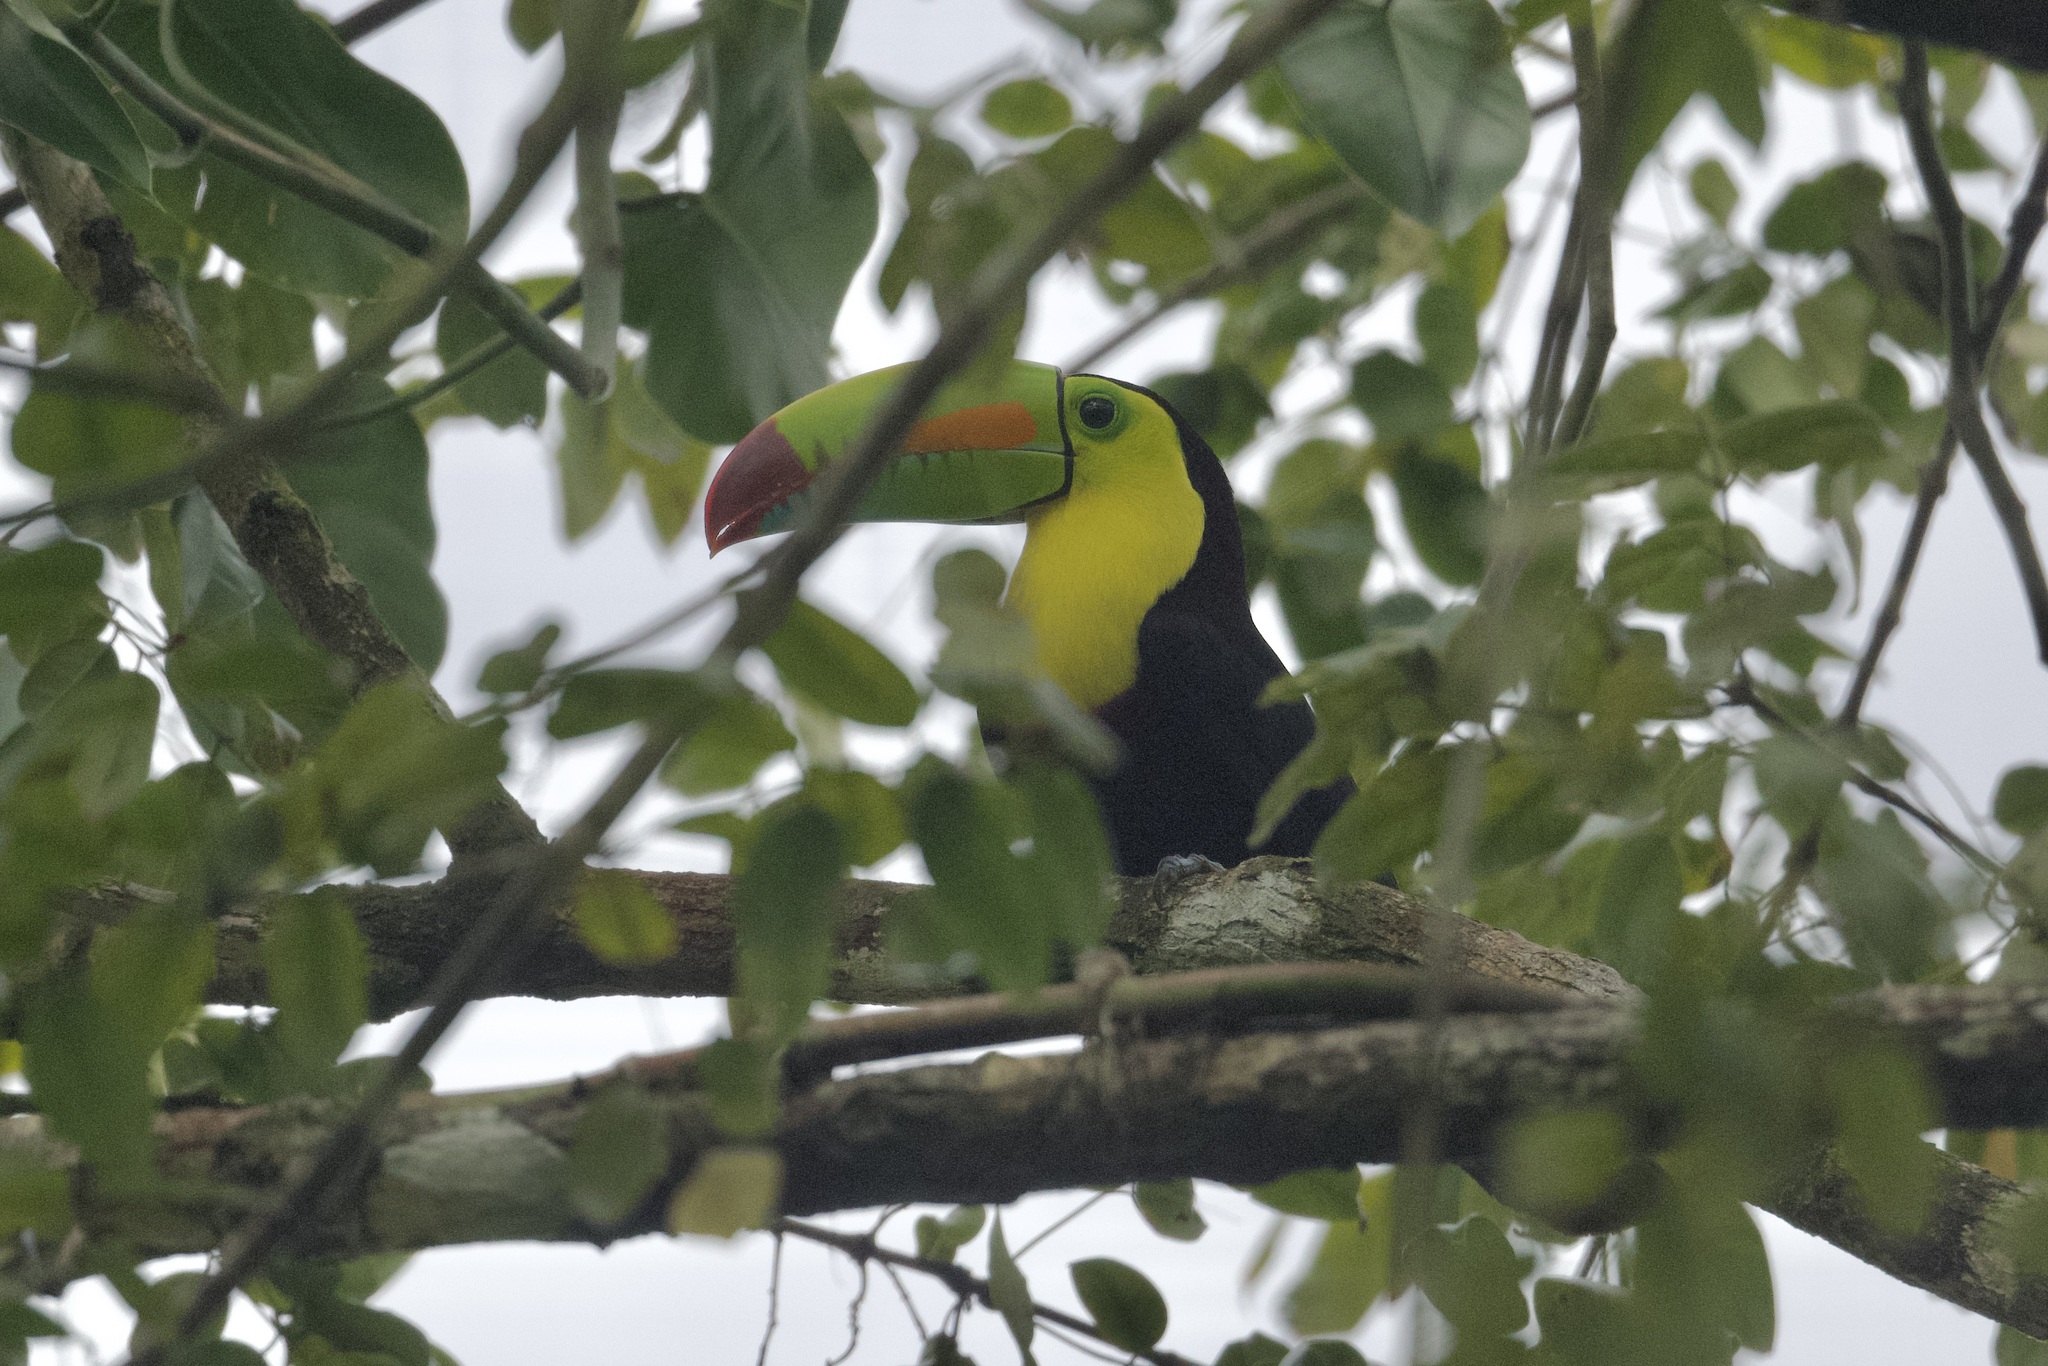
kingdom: Animalia
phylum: Chordata
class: Aves
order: Piciformes
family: Ramphastidae
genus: Ramphastos
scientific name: Ramphastos sulfuratus
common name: Keel-billed toucan
